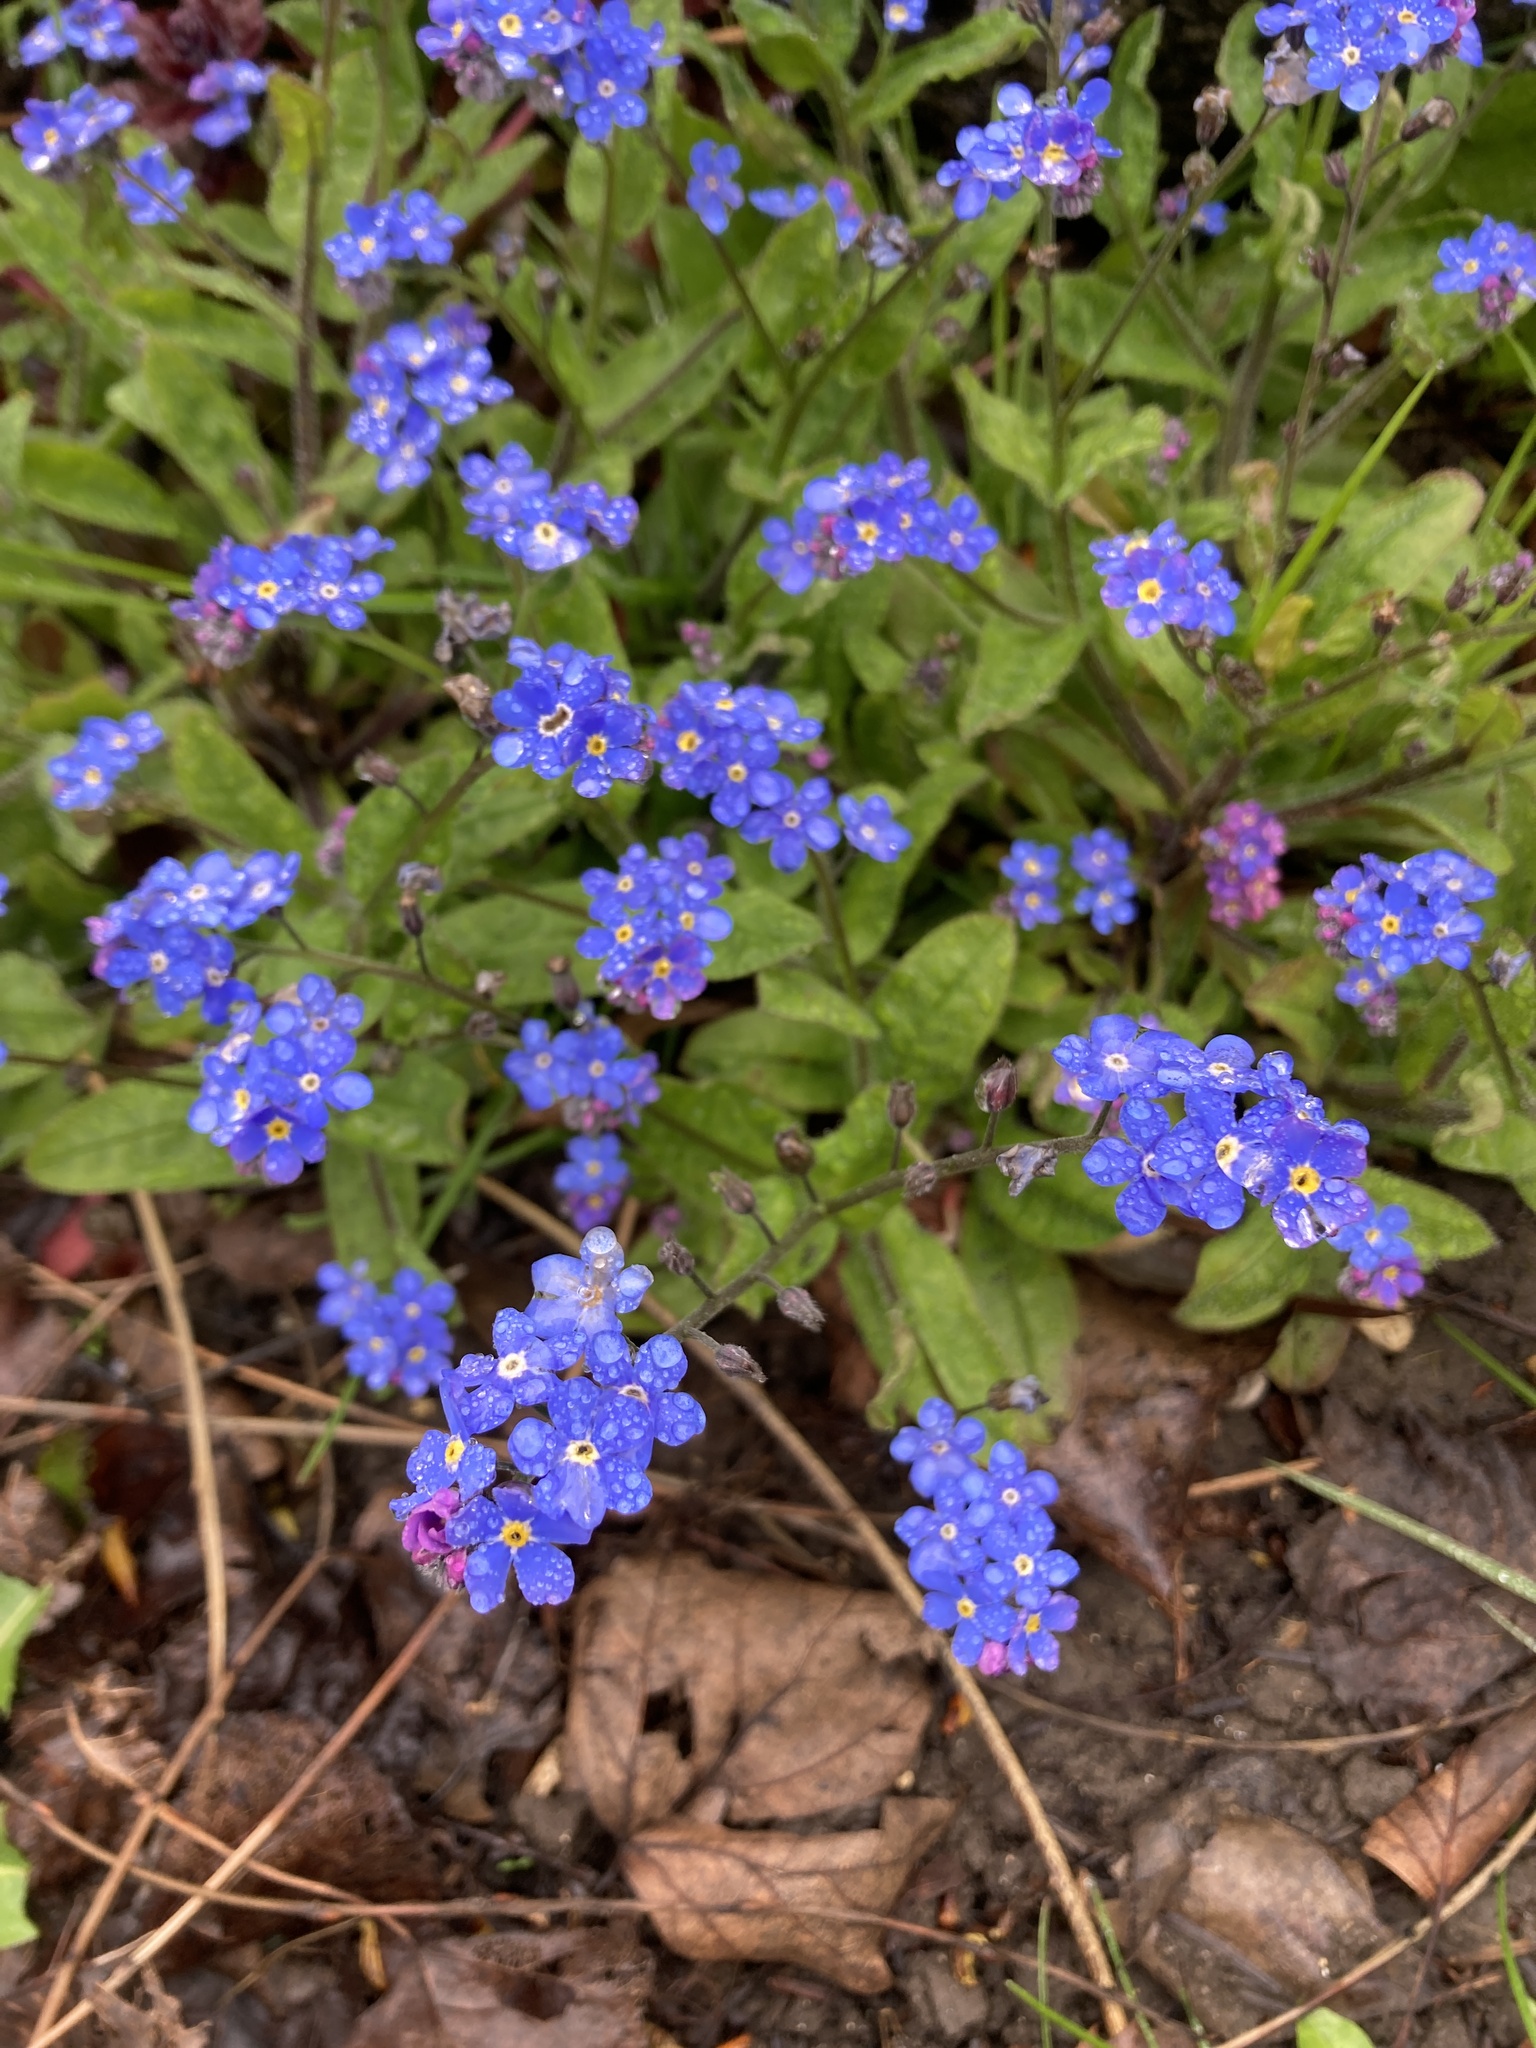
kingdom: Plantae
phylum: Tracheophyta
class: Magnoliopsida
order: Boraginales
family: Boraginaceae
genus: Myosotis
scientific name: Myosotis sylvatica
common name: Wood forget-me-not
